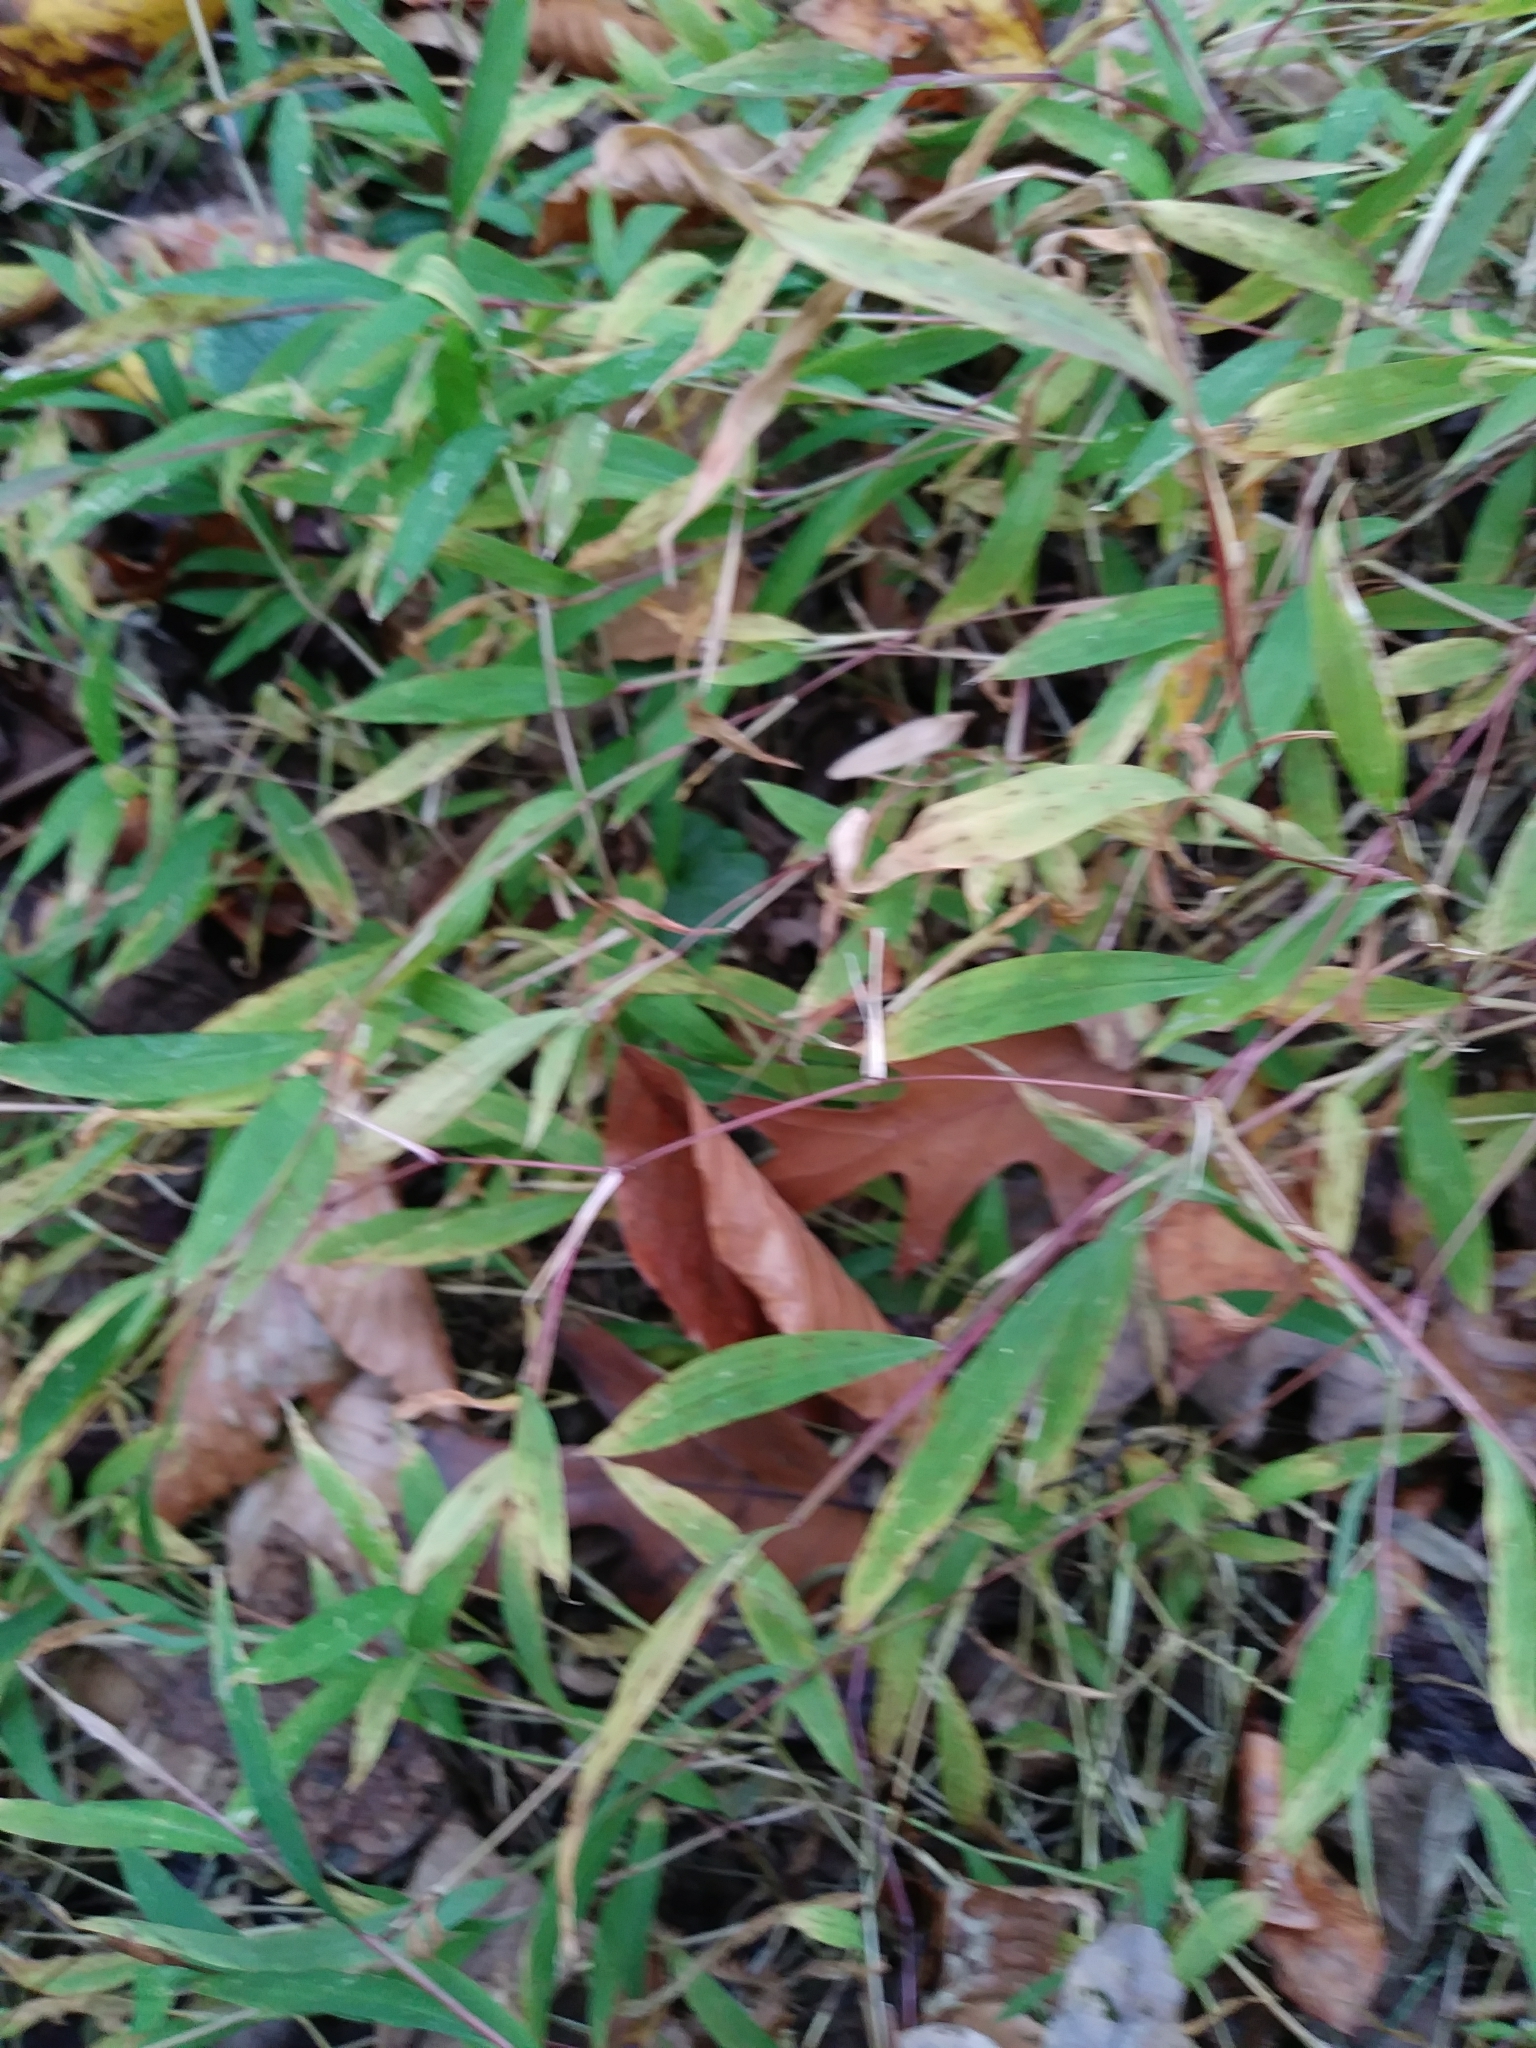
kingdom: Plantae
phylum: Tracheophyta
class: Liliopsida
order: Poales
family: Poaceae
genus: Microstegium
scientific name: Microstegium vimineum
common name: Japanese stiltgrass
